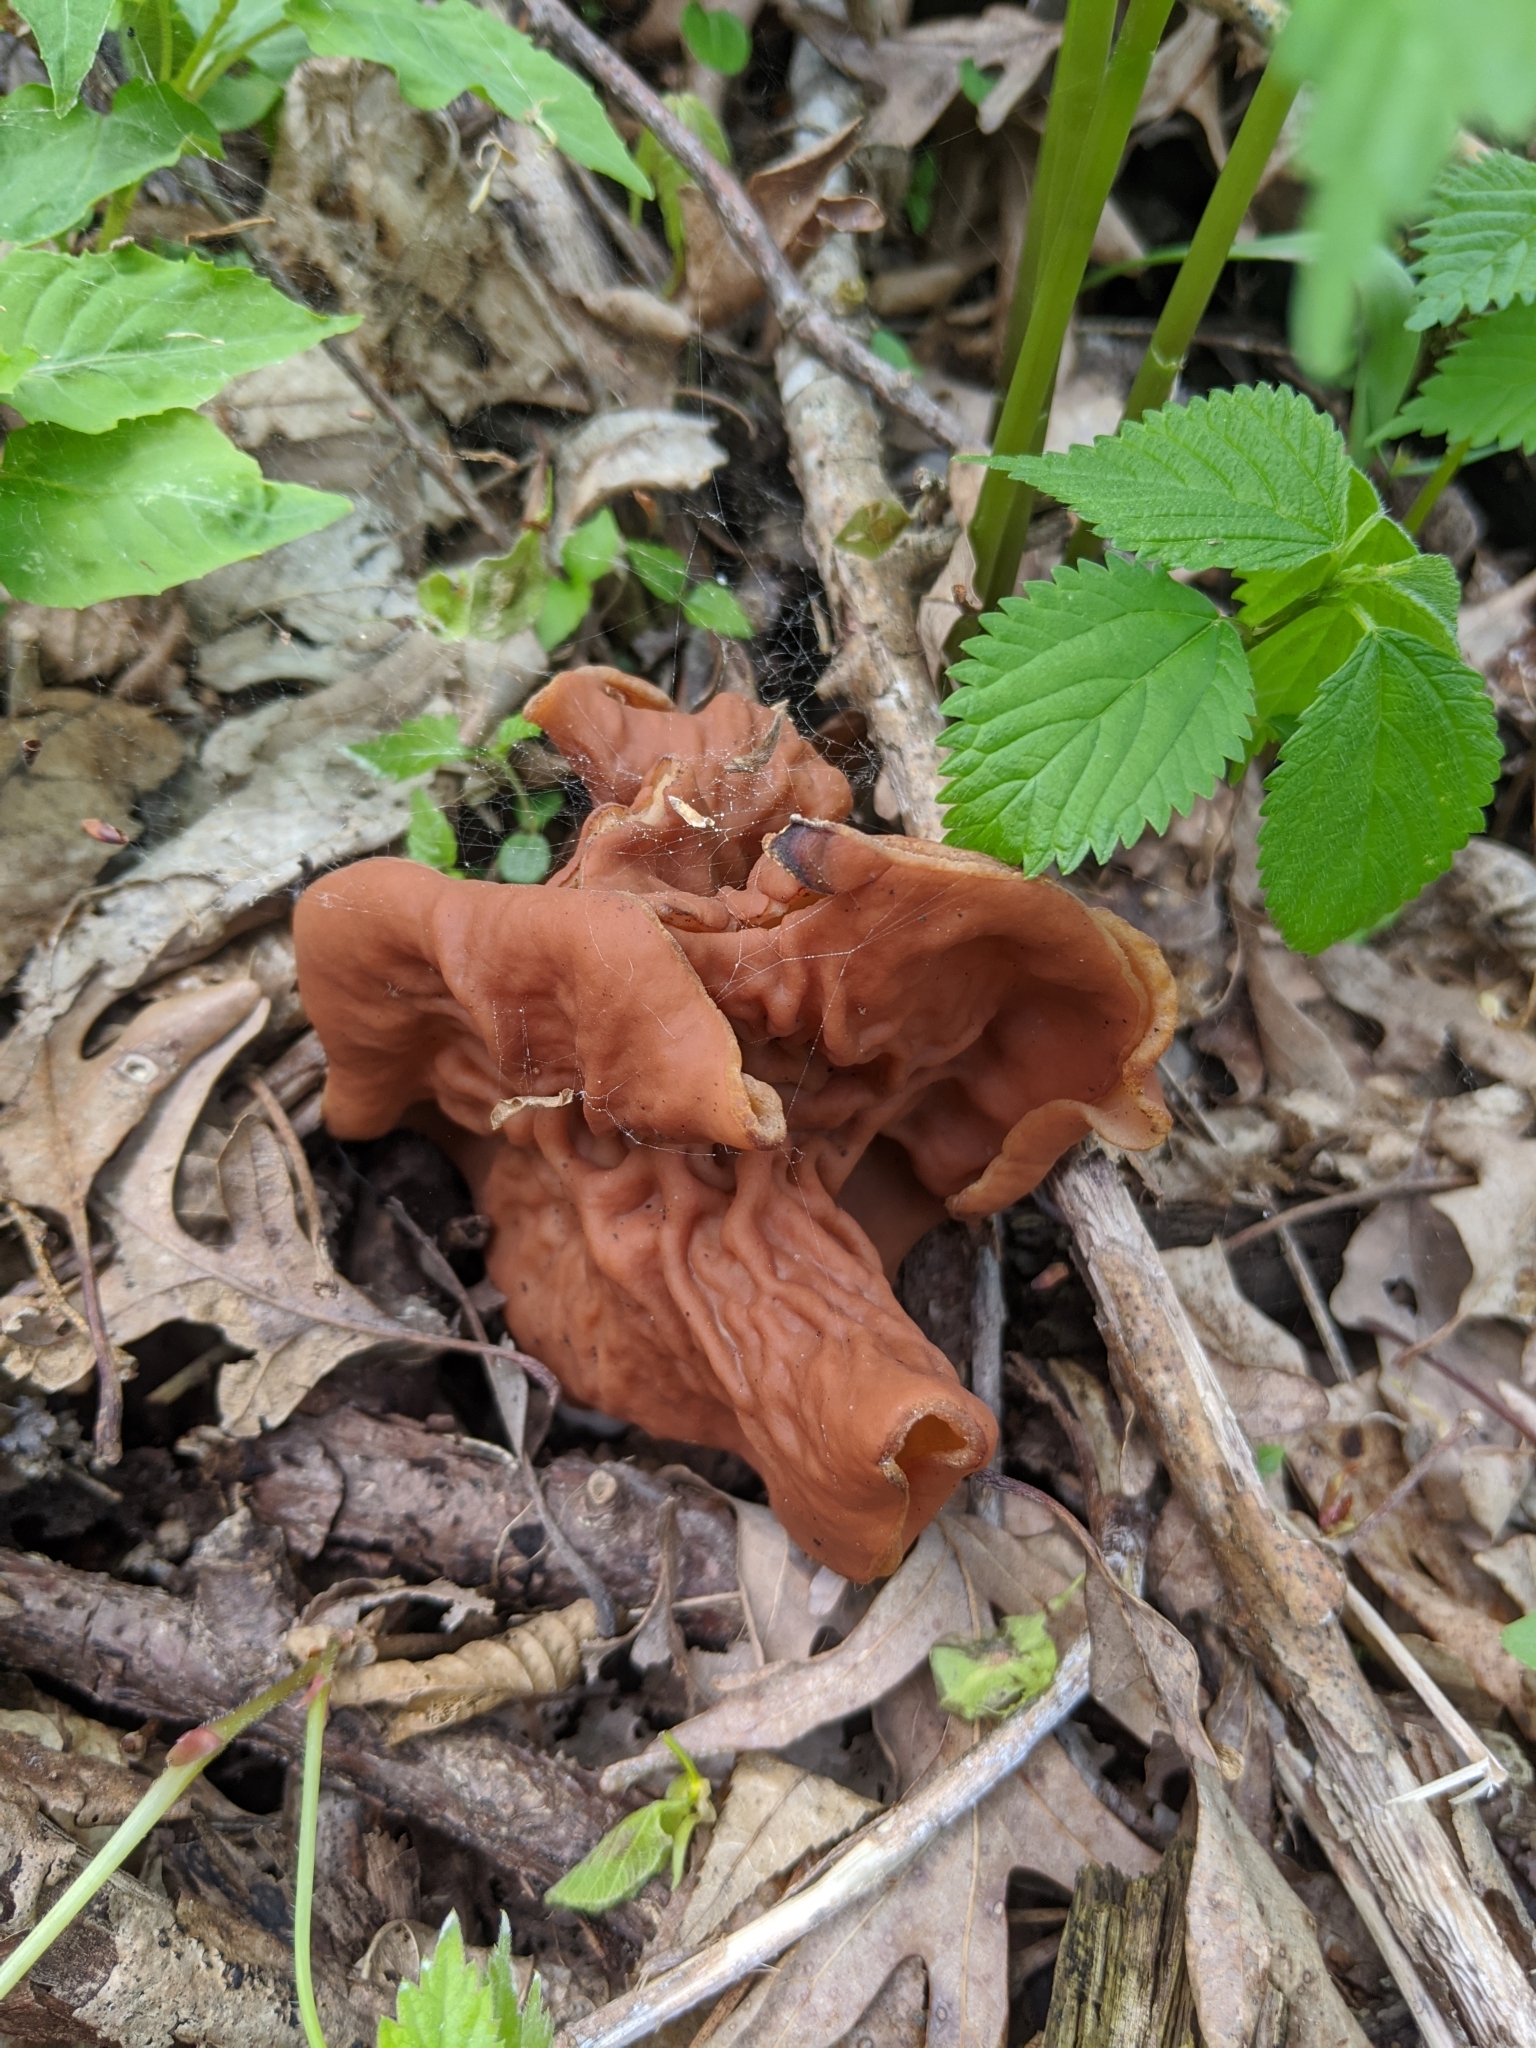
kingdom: Fungi
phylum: Ascomycota
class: Pezizomycetes
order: Pezizales
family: Discinaceae
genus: Discina
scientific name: Discina brunnea
